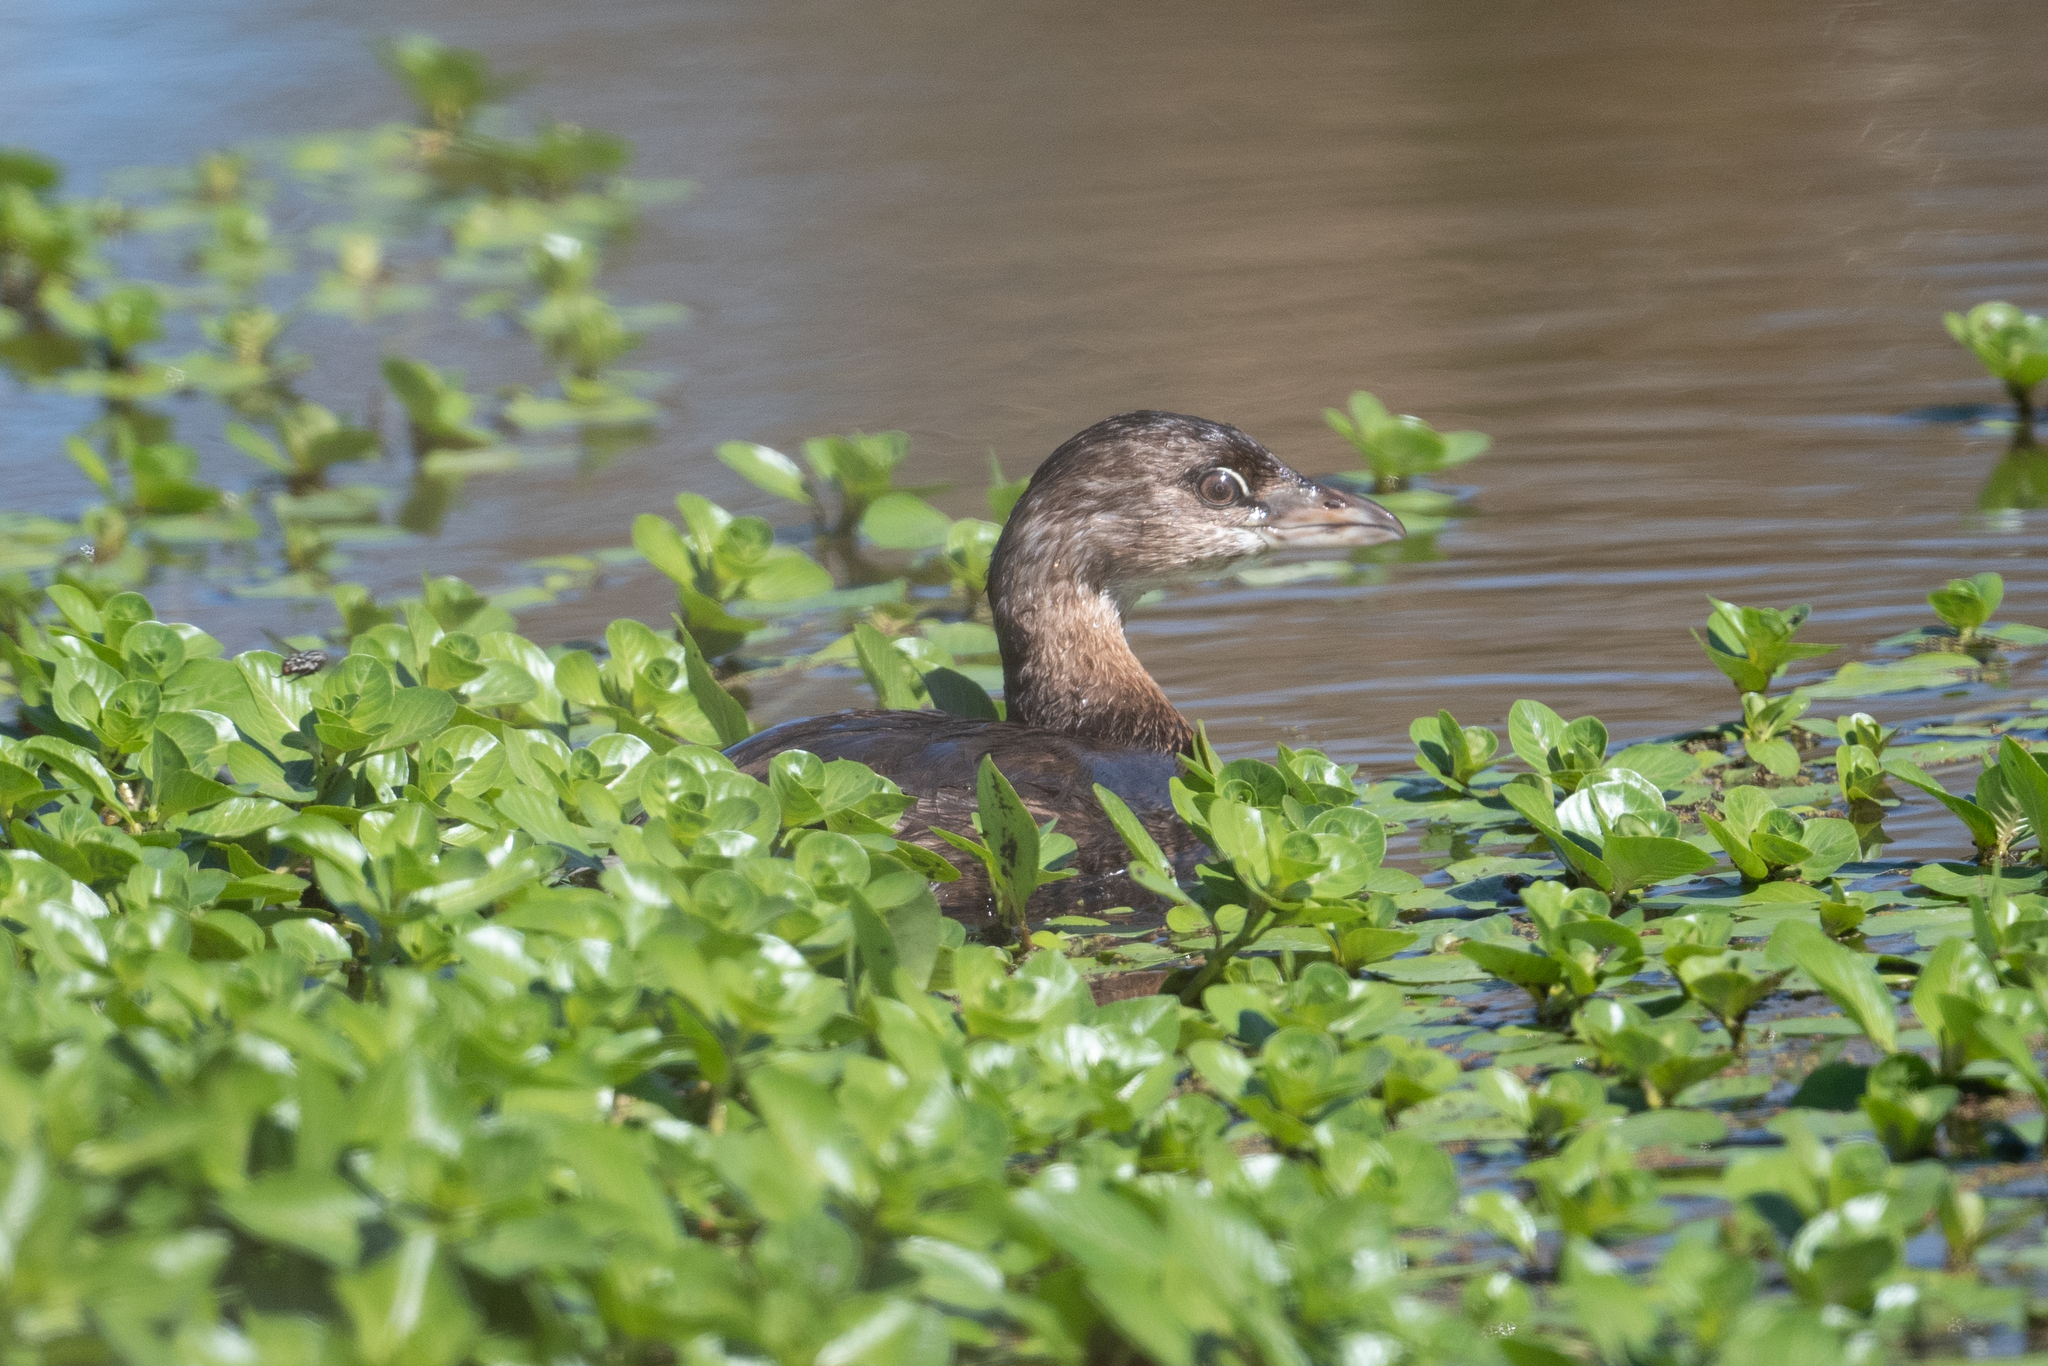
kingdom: Animalia
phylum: Chordata
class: Aves
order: Podicipediformes
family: Podicipedidae
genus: Podilymbus
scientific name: Podilymbus podiceps
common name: Pied-billed grebe
